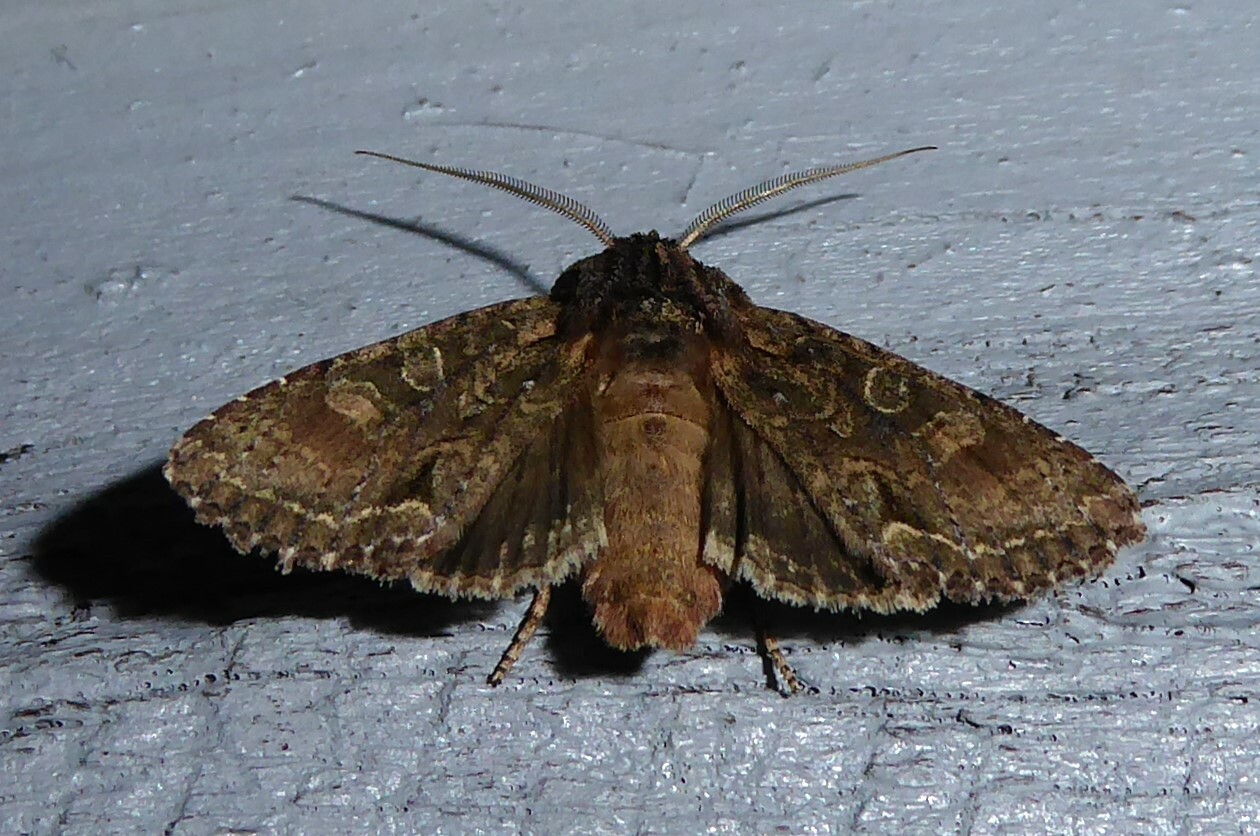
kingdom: Animalia
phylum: Arthropoda
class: Insecta
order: Lepidoptera
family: Noctuidae
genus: Ichneutica
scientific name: Ichneutica mutans
